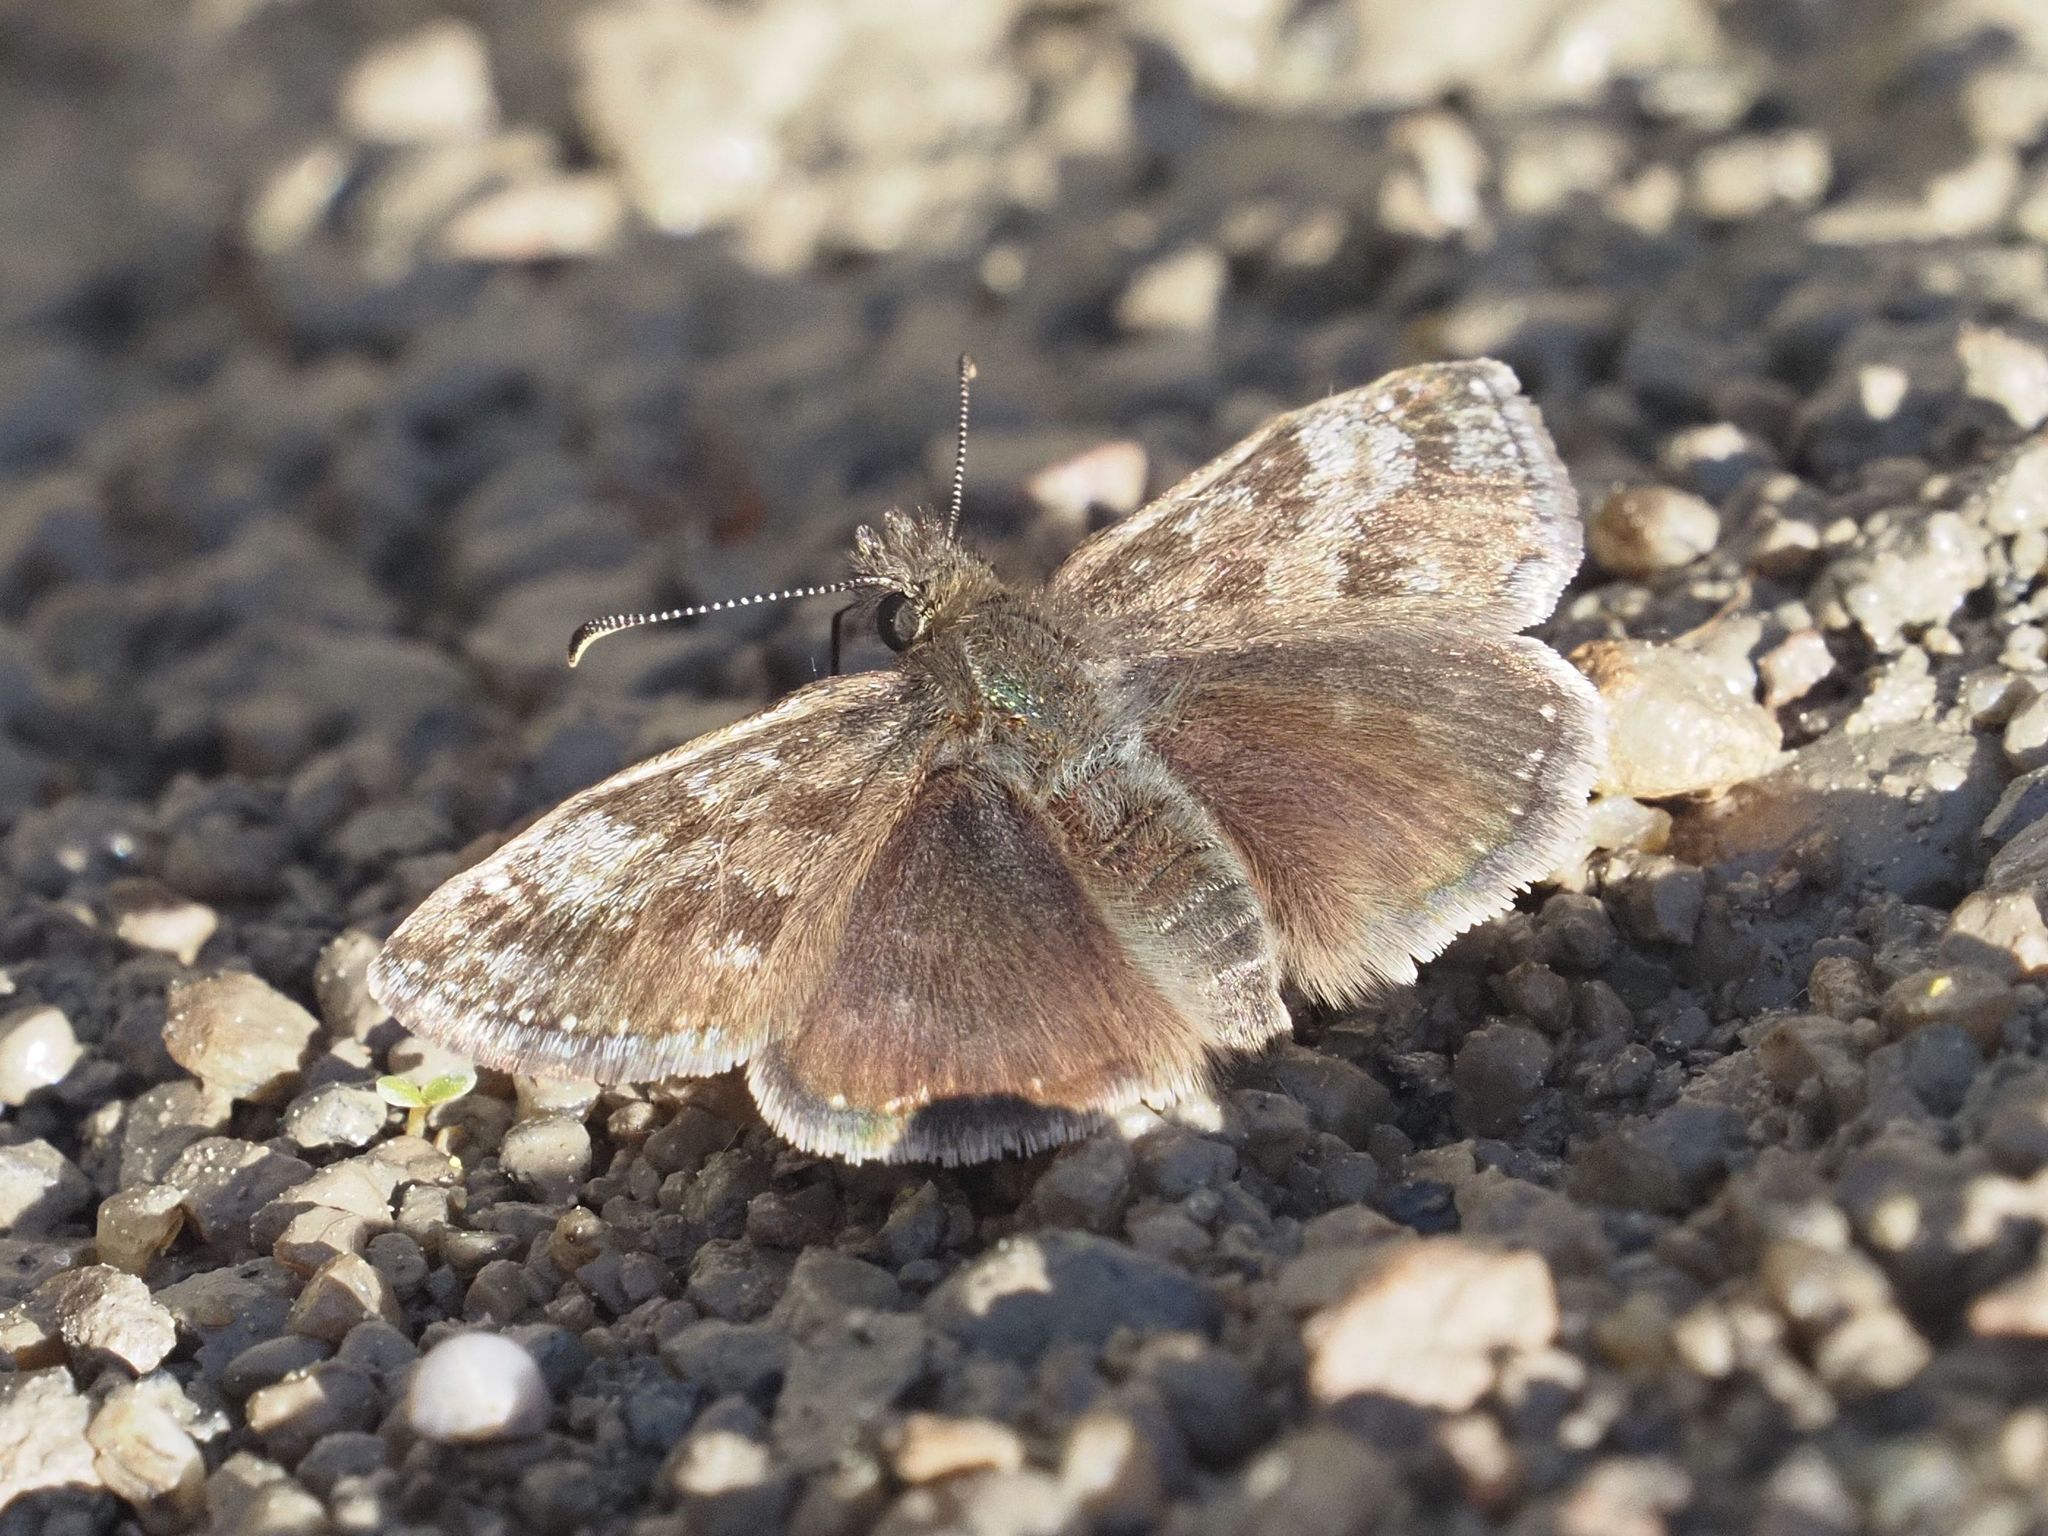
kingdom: Animalia
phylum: Arthropoda
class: Insecta
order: Lepidoptera
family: Hesperiidae
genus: Erynnis
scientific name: Erynnis tages
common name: Dingy skipper
